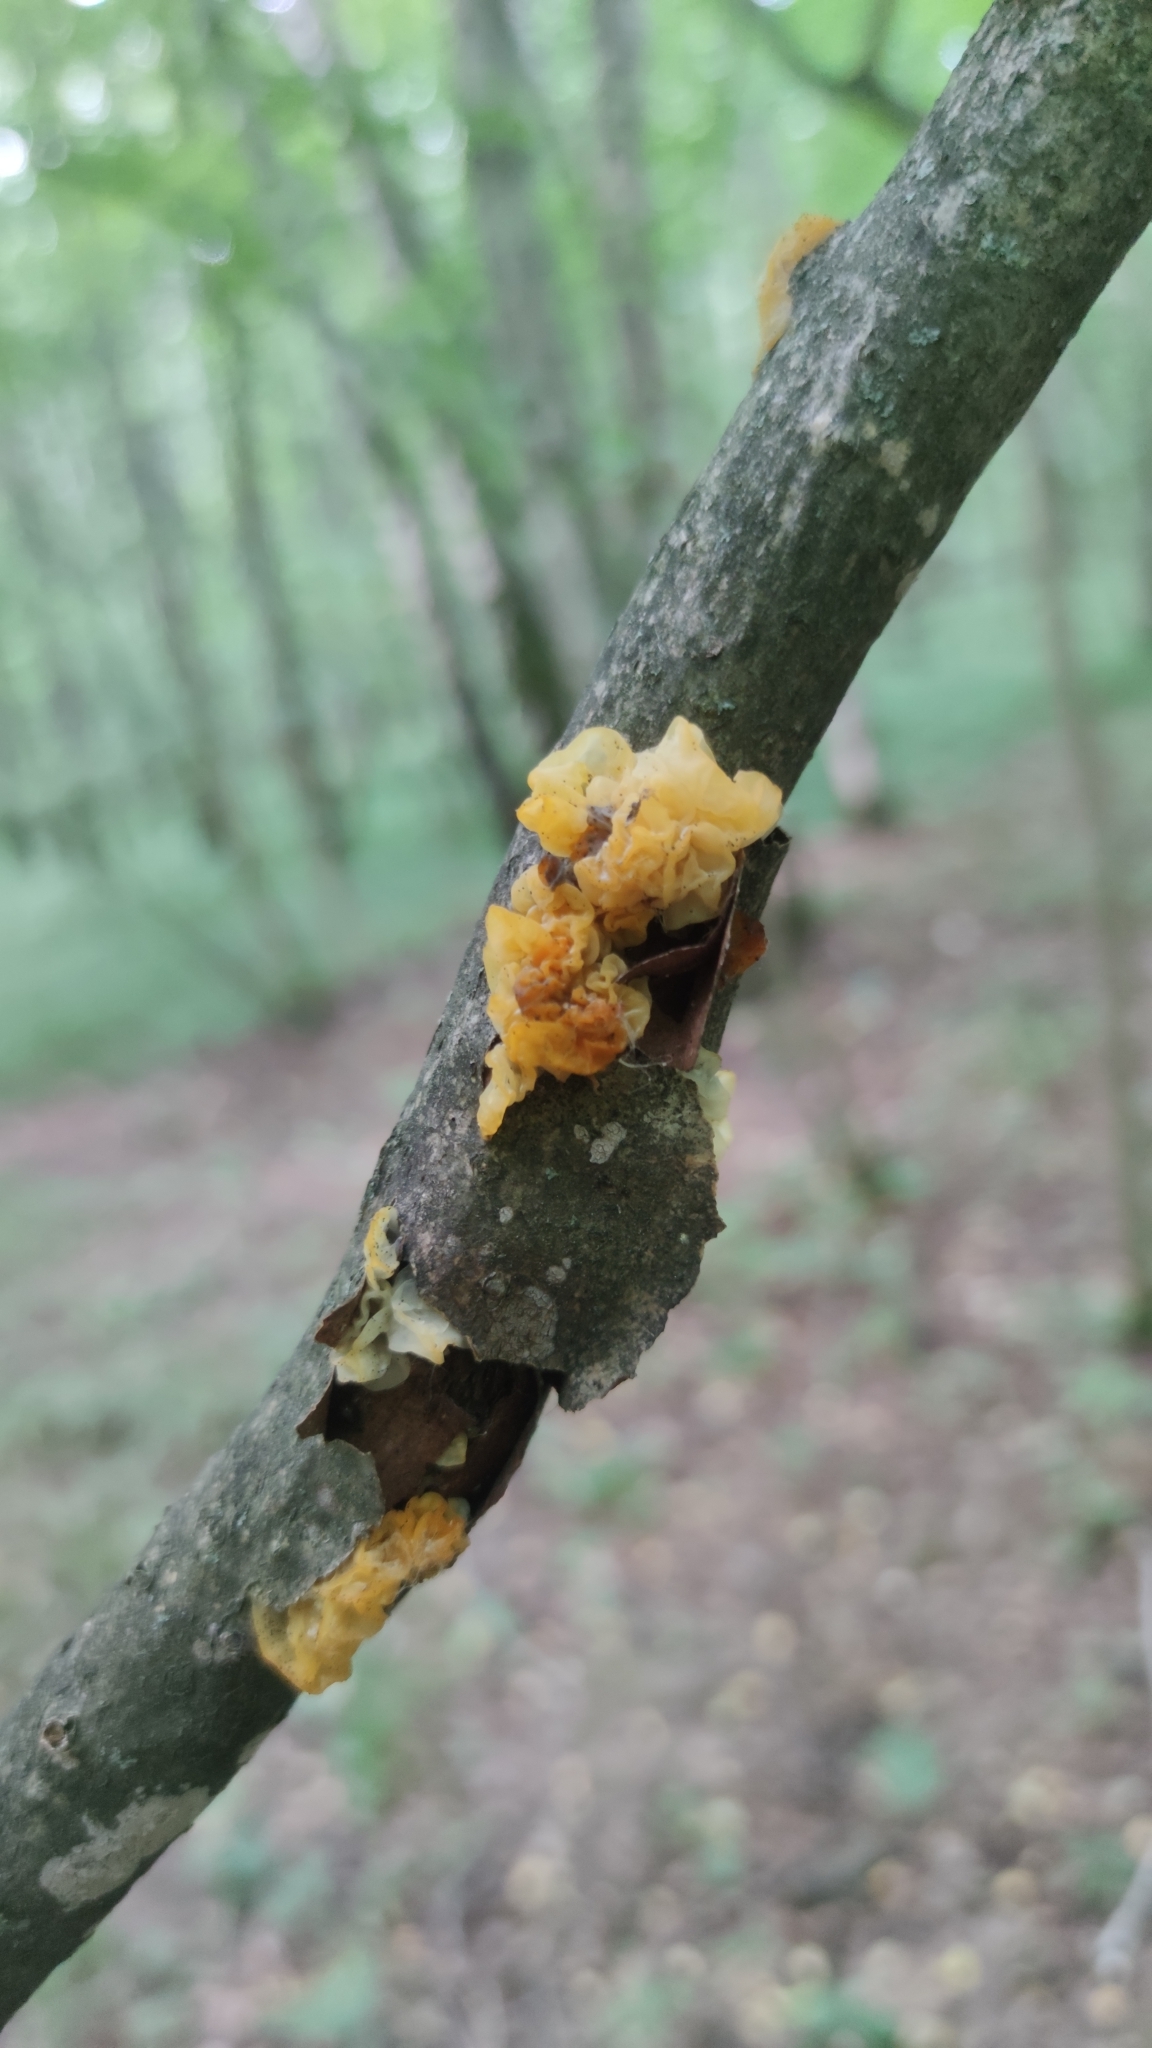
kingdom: Fungi
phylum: Basidiomycota
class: Tremellomycetes
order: Tremellales
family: Tremellaceae
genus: Tremella
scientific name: Tremella mesenterica
